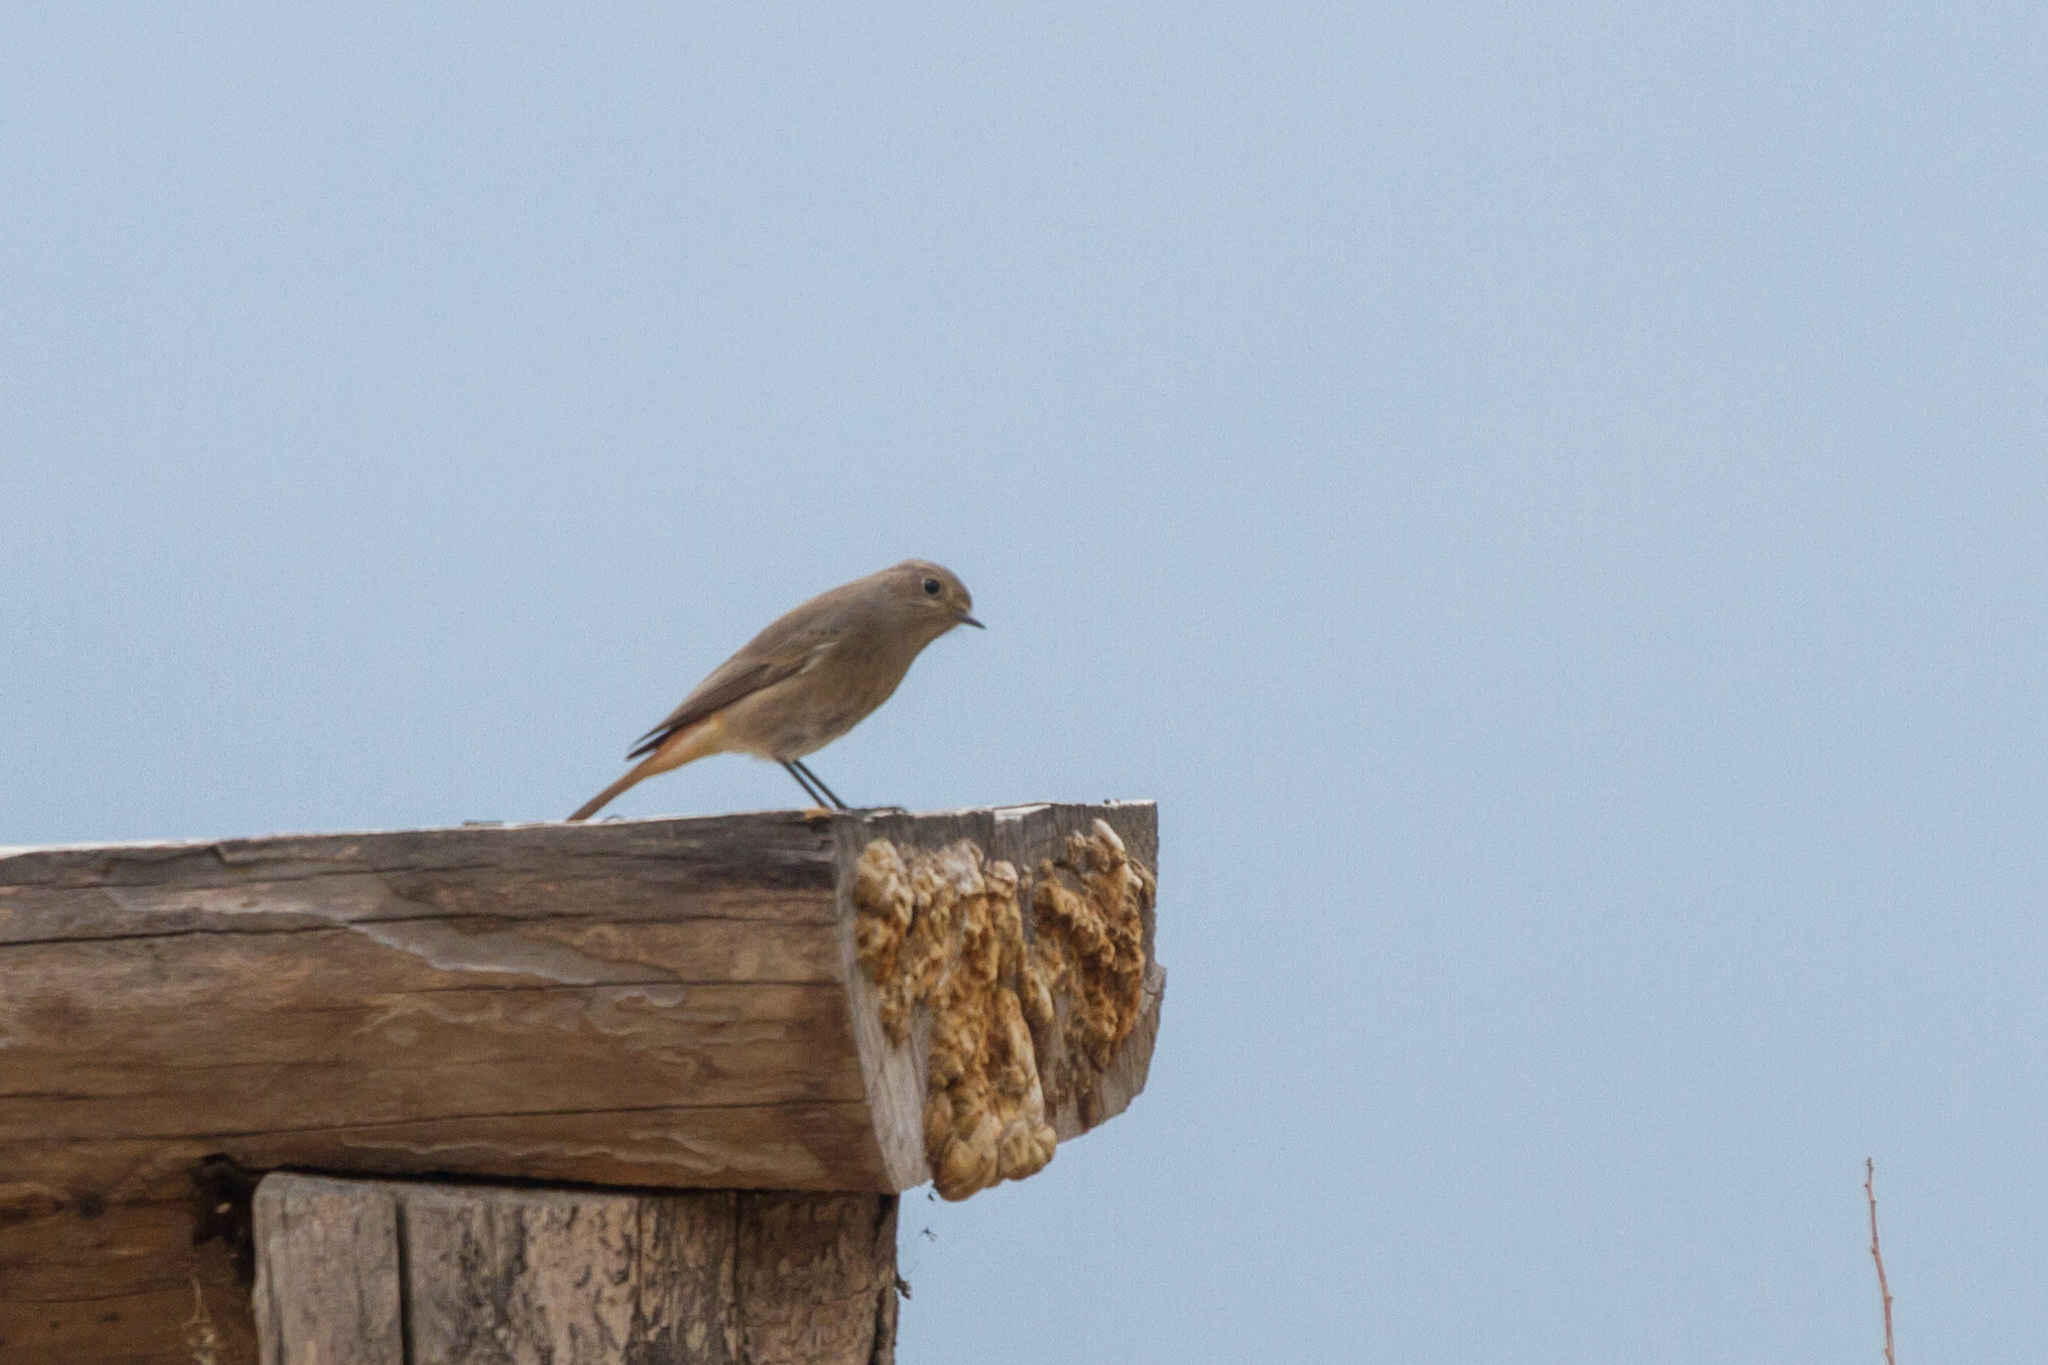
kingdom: Animalia
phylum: Chordata
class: Aves
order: Passeriformes
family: Muscicapidae
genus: Phoenicurus
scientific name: Phoenicurus ochruros
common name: Black redstart
